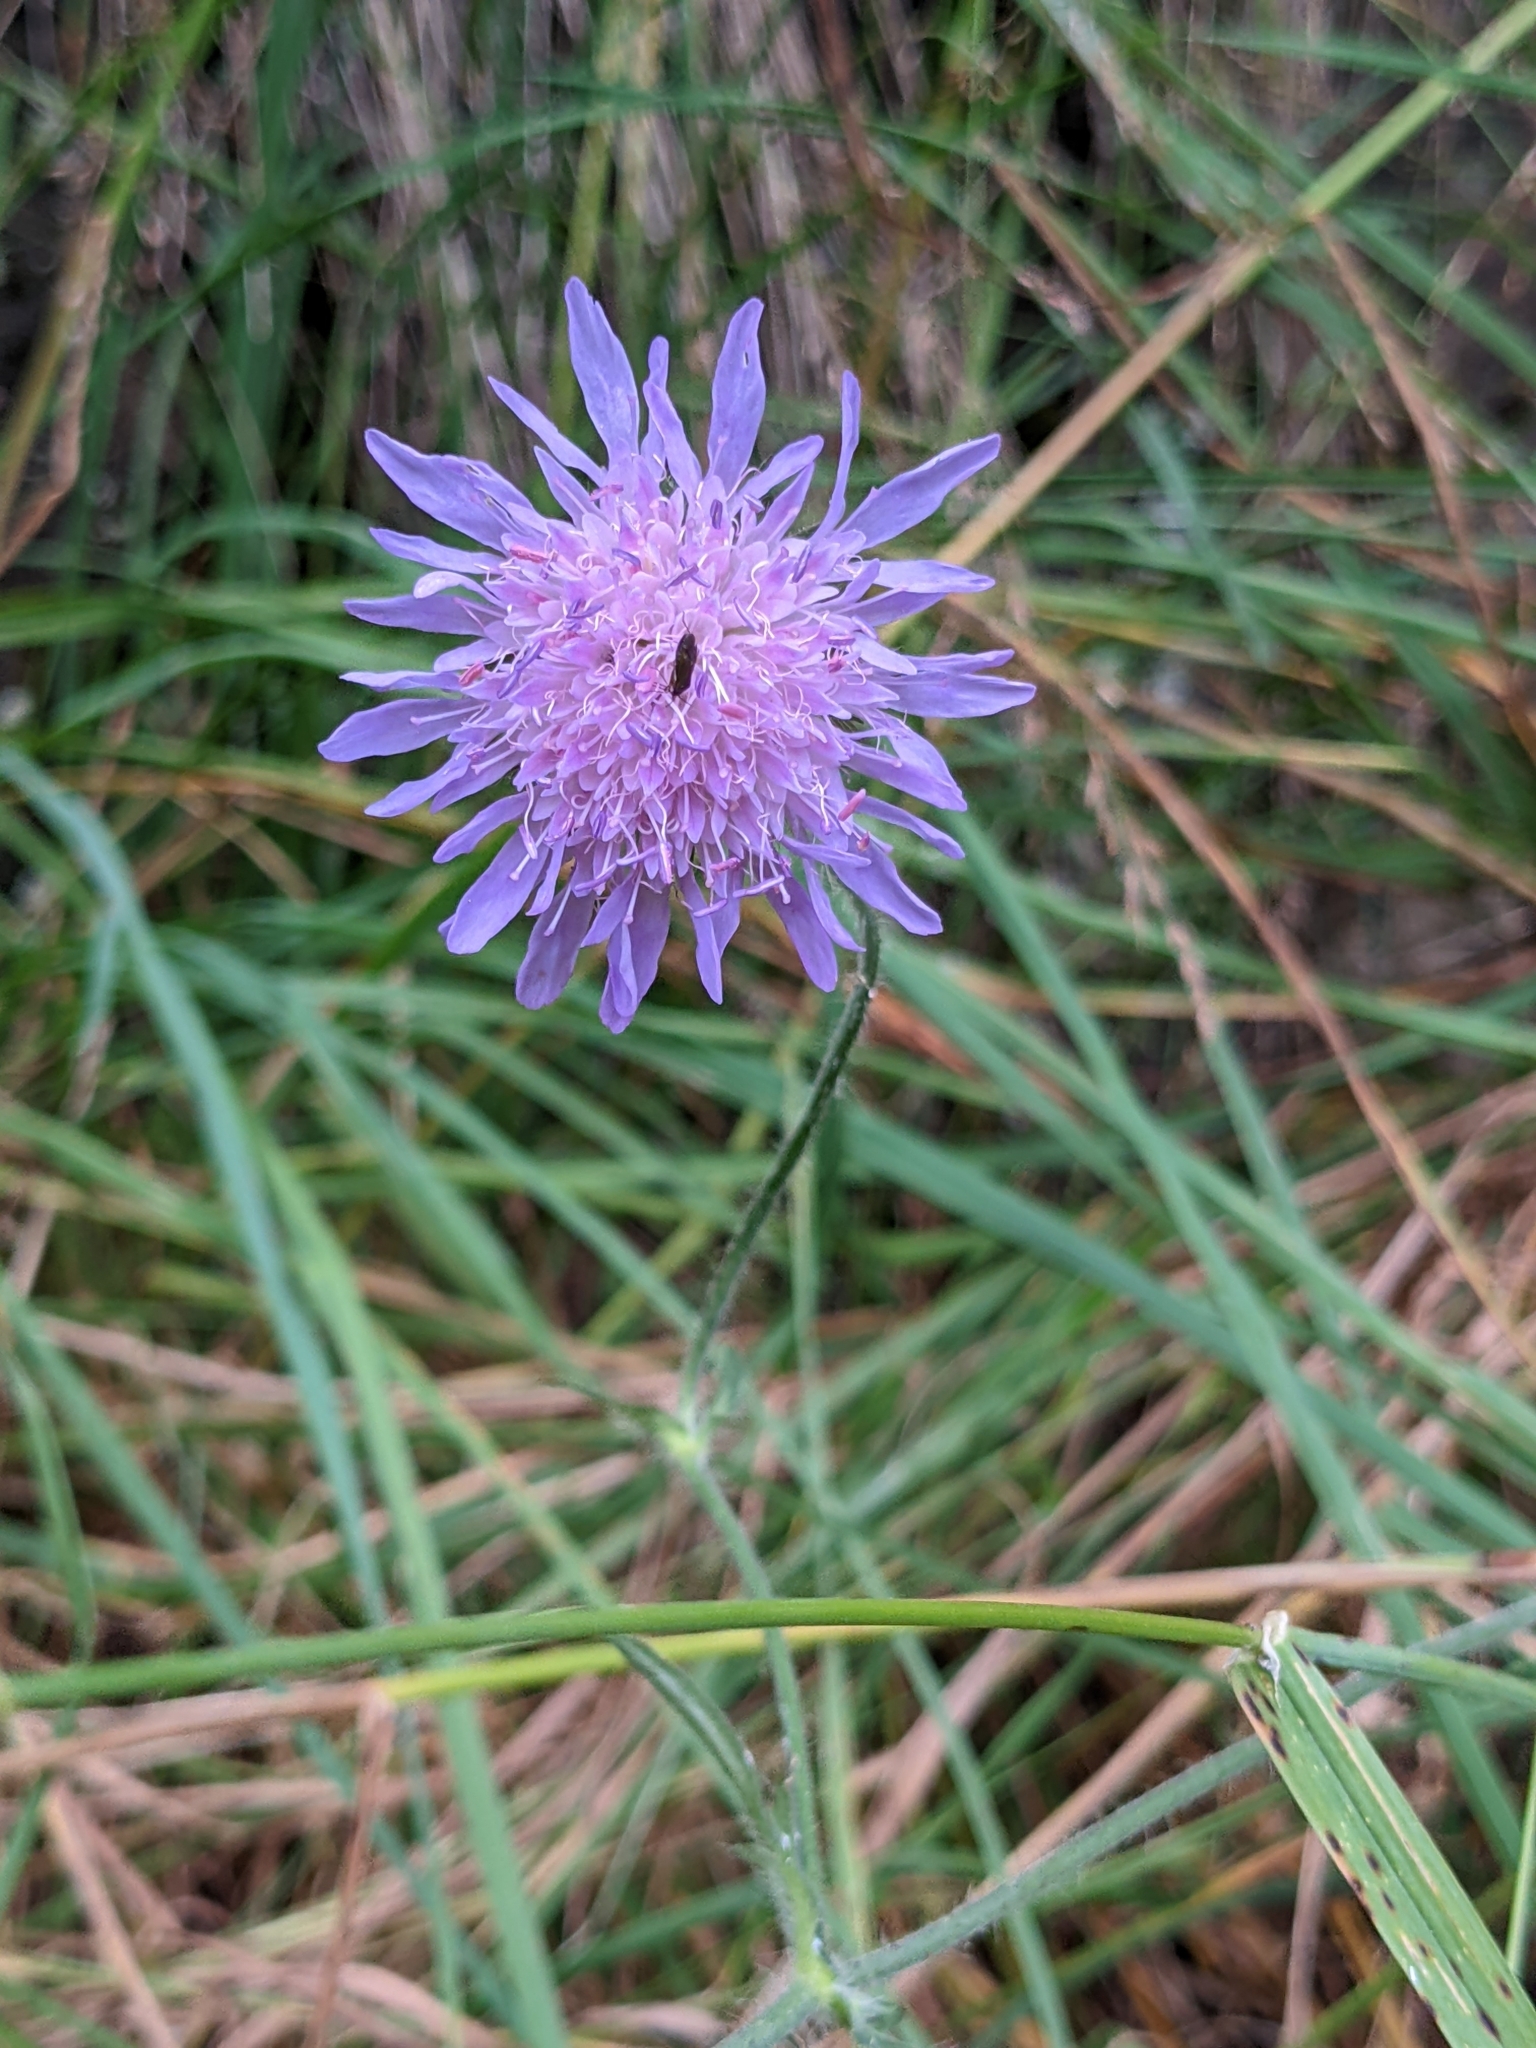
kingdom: Plantae
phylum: Tracheophyta
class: Magnoliopsida
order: Dipsacales
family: Caprifoliaceae
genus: Knautia
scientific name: Knautia arvensis
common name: Field scabiosa
